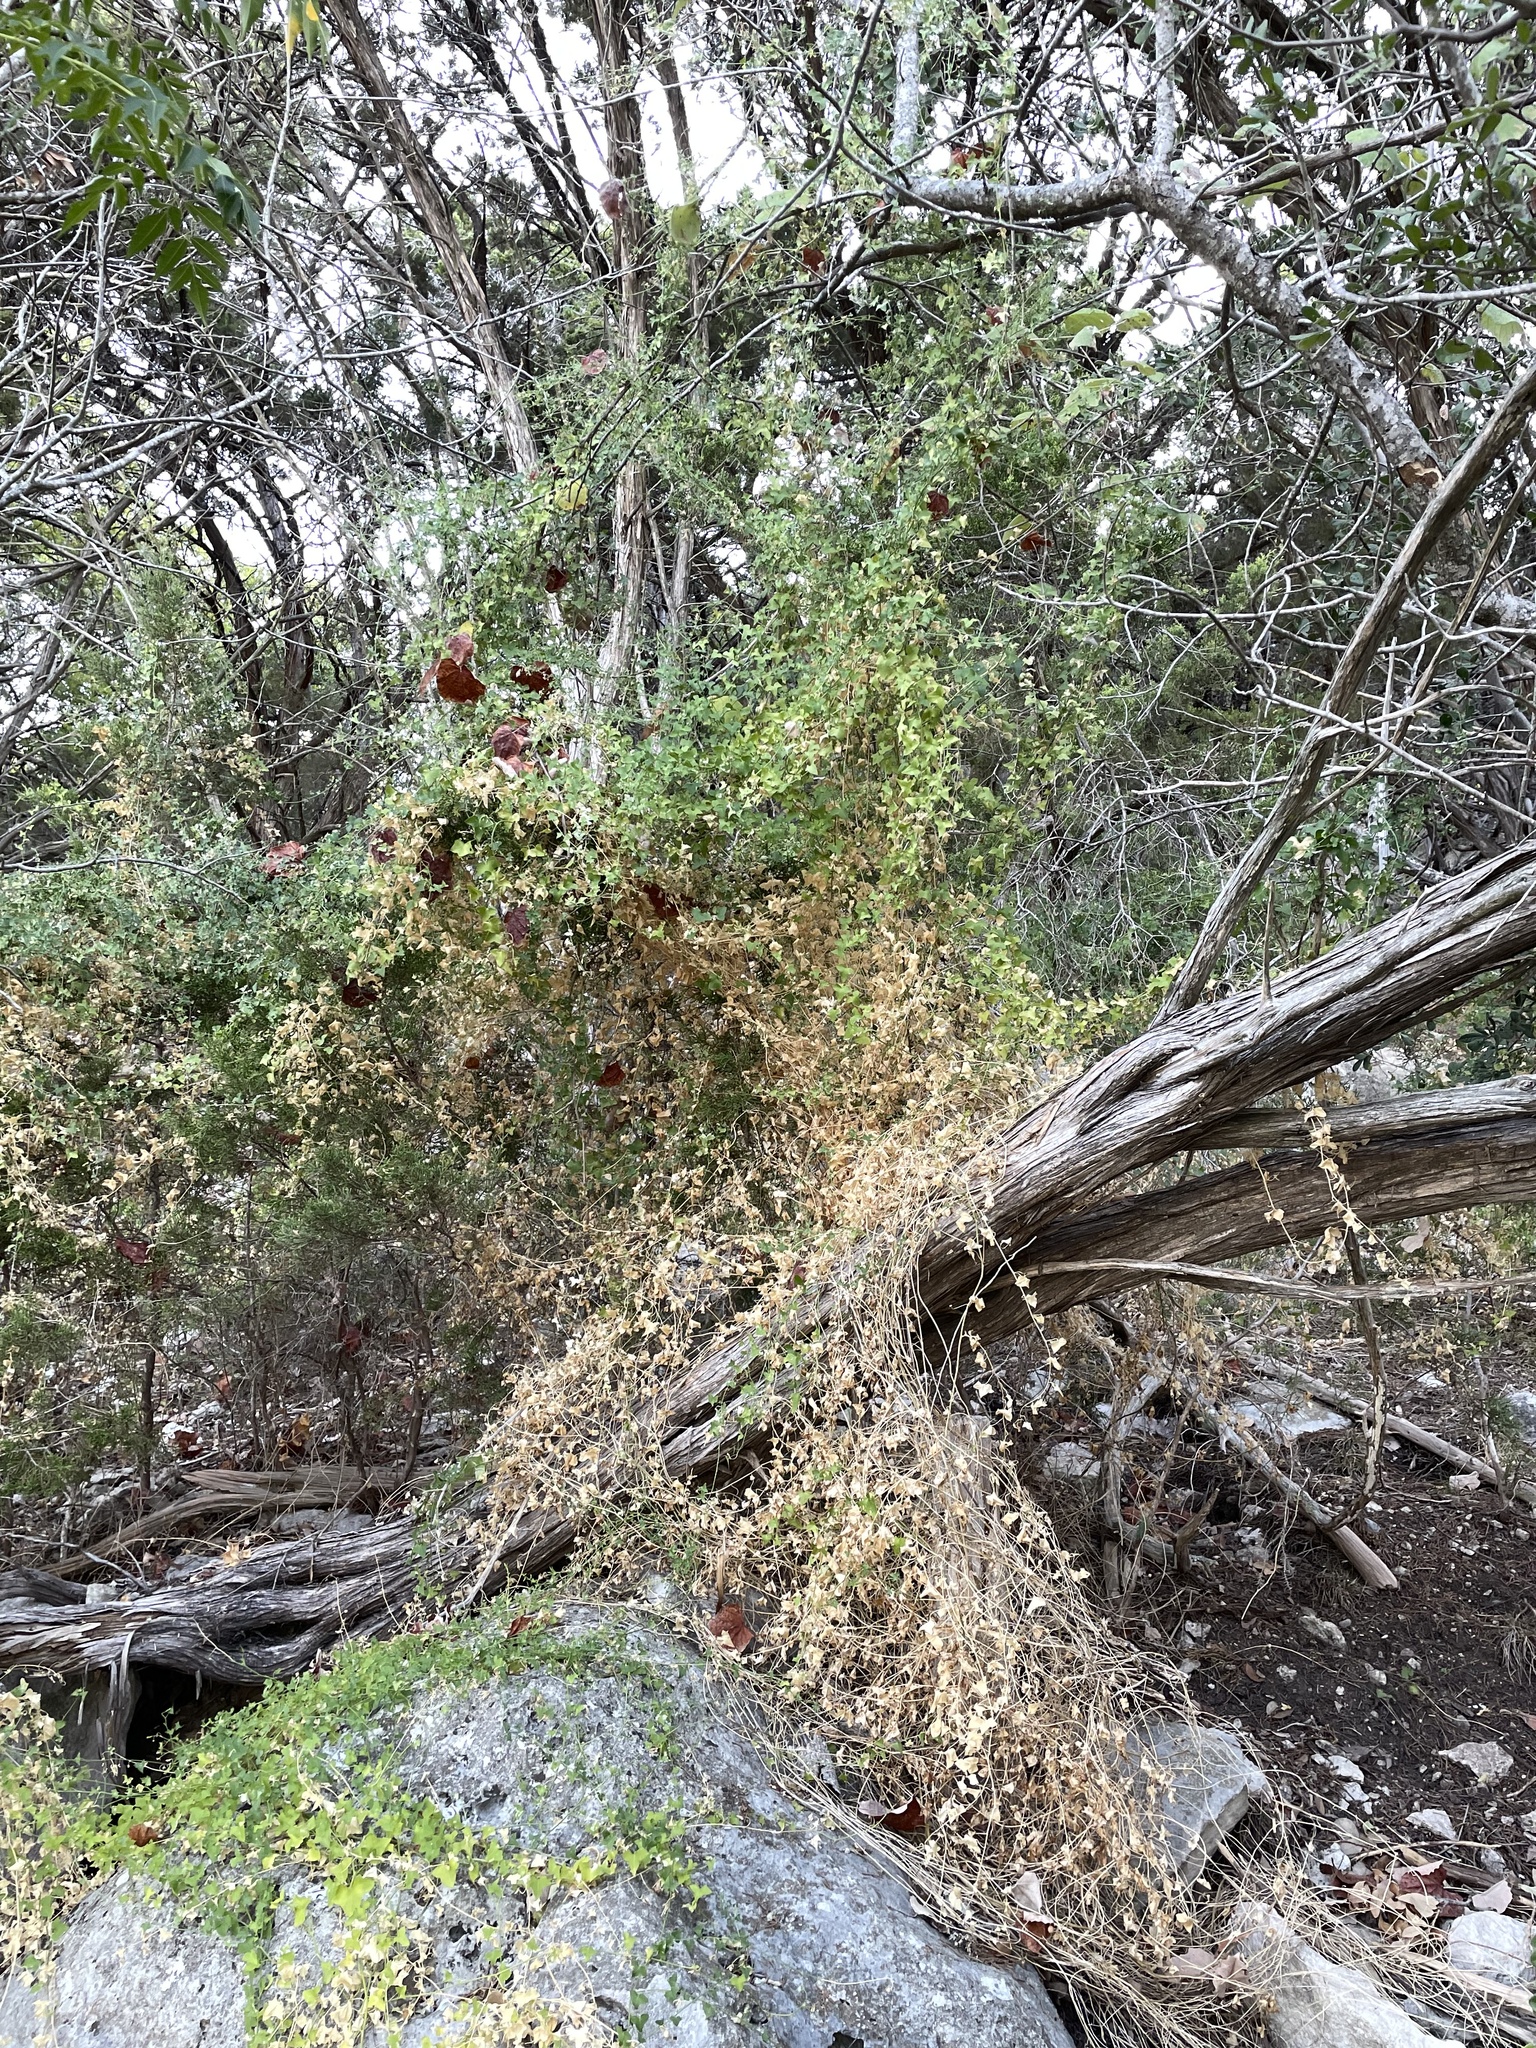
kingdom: Plantae
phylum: Tracheophyta
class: Magnoliopsida
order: Lamiales
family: Plantaginaceae
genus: Maurandella
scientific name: Maurandella antirrhiniflora
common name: Violet twining-snapdragon
